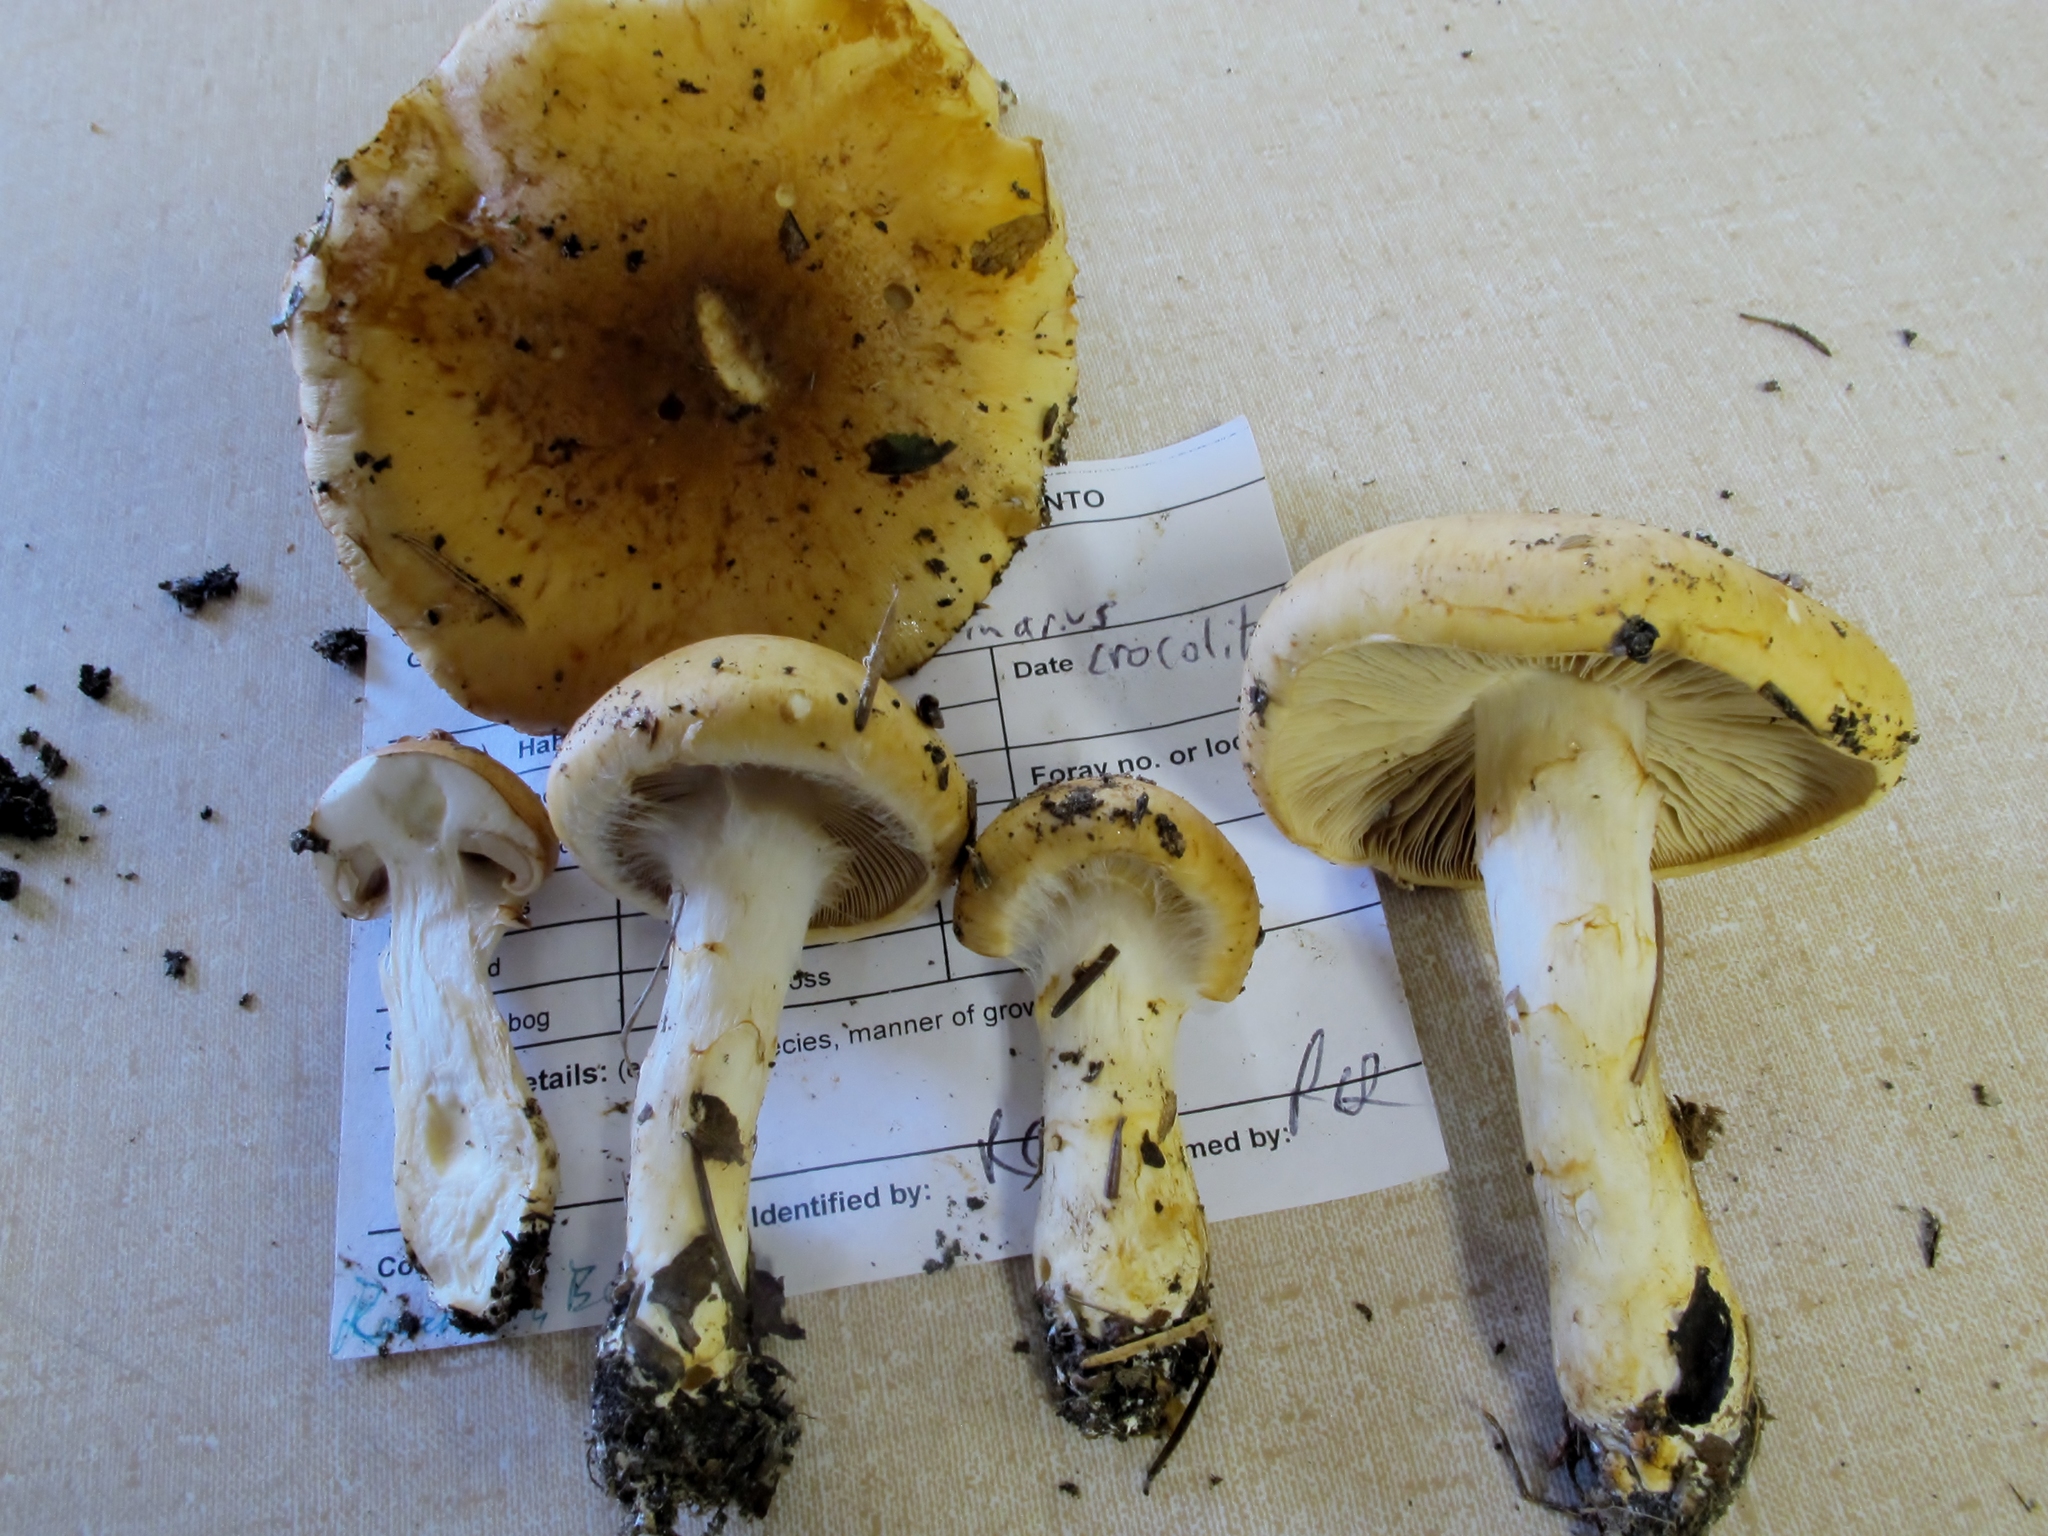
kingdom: Fungi
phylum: Basidiomycota
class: Agaricomycetes
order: Agaricales
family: Cortinariaceae
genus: Phlegmacium
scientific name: Phlegmacium triumphans
